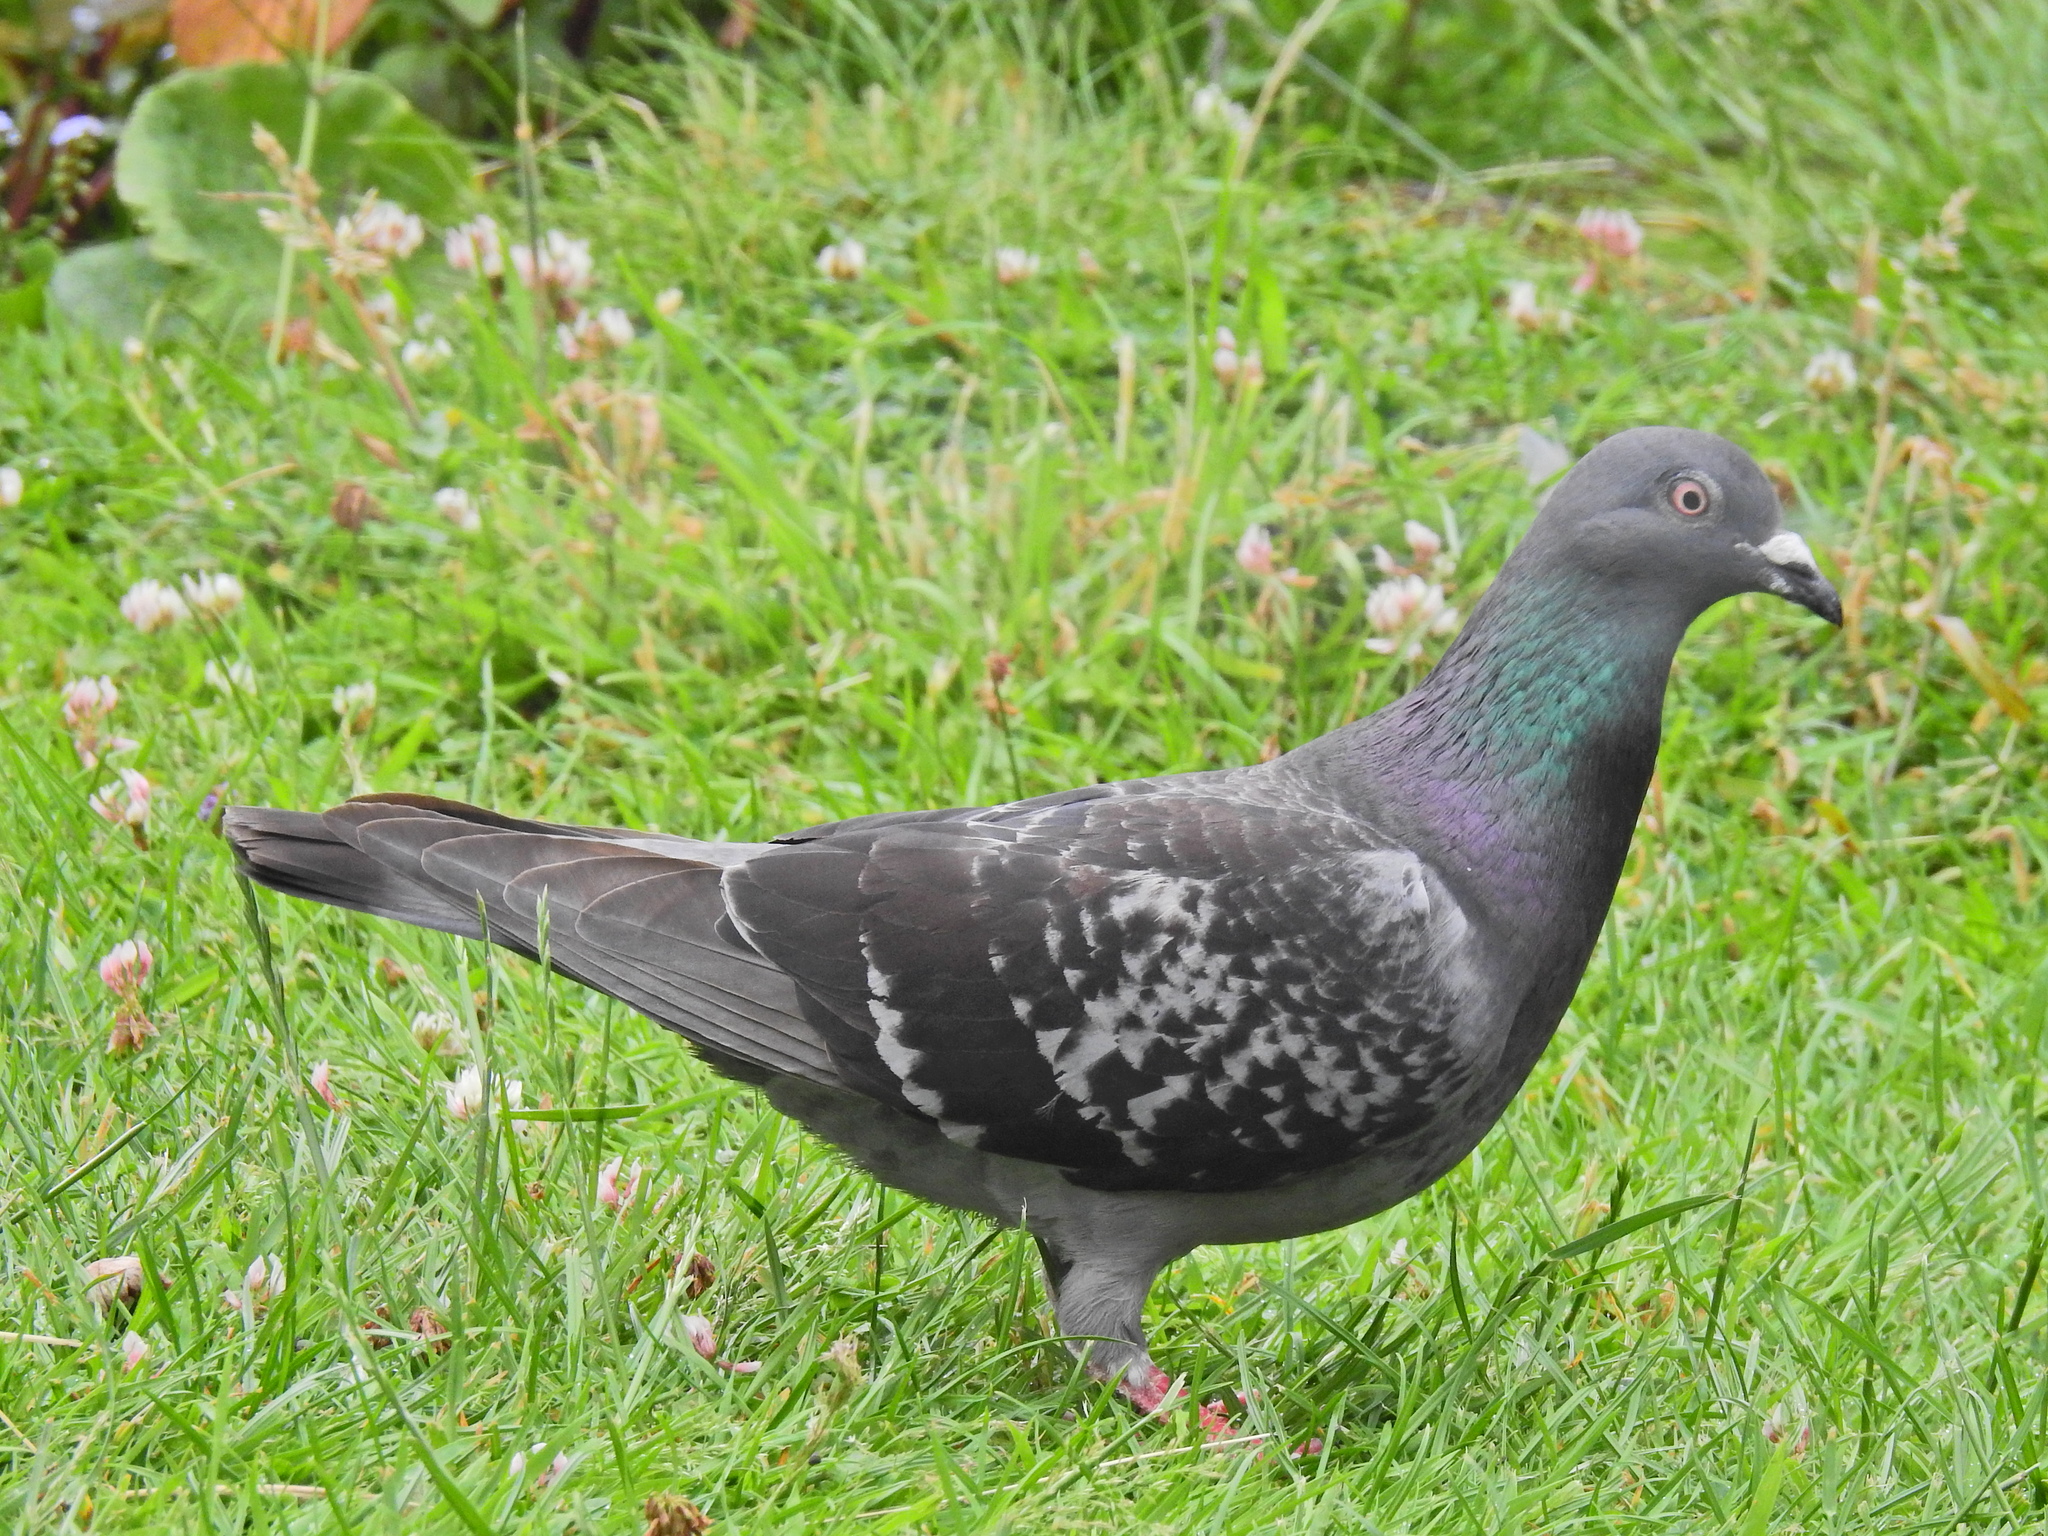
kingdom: Animalia
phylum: Chordata
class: Aves
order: Columbiformes
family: Columbidae
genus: Columba
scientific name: Columba livia
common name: Rock pigeon
